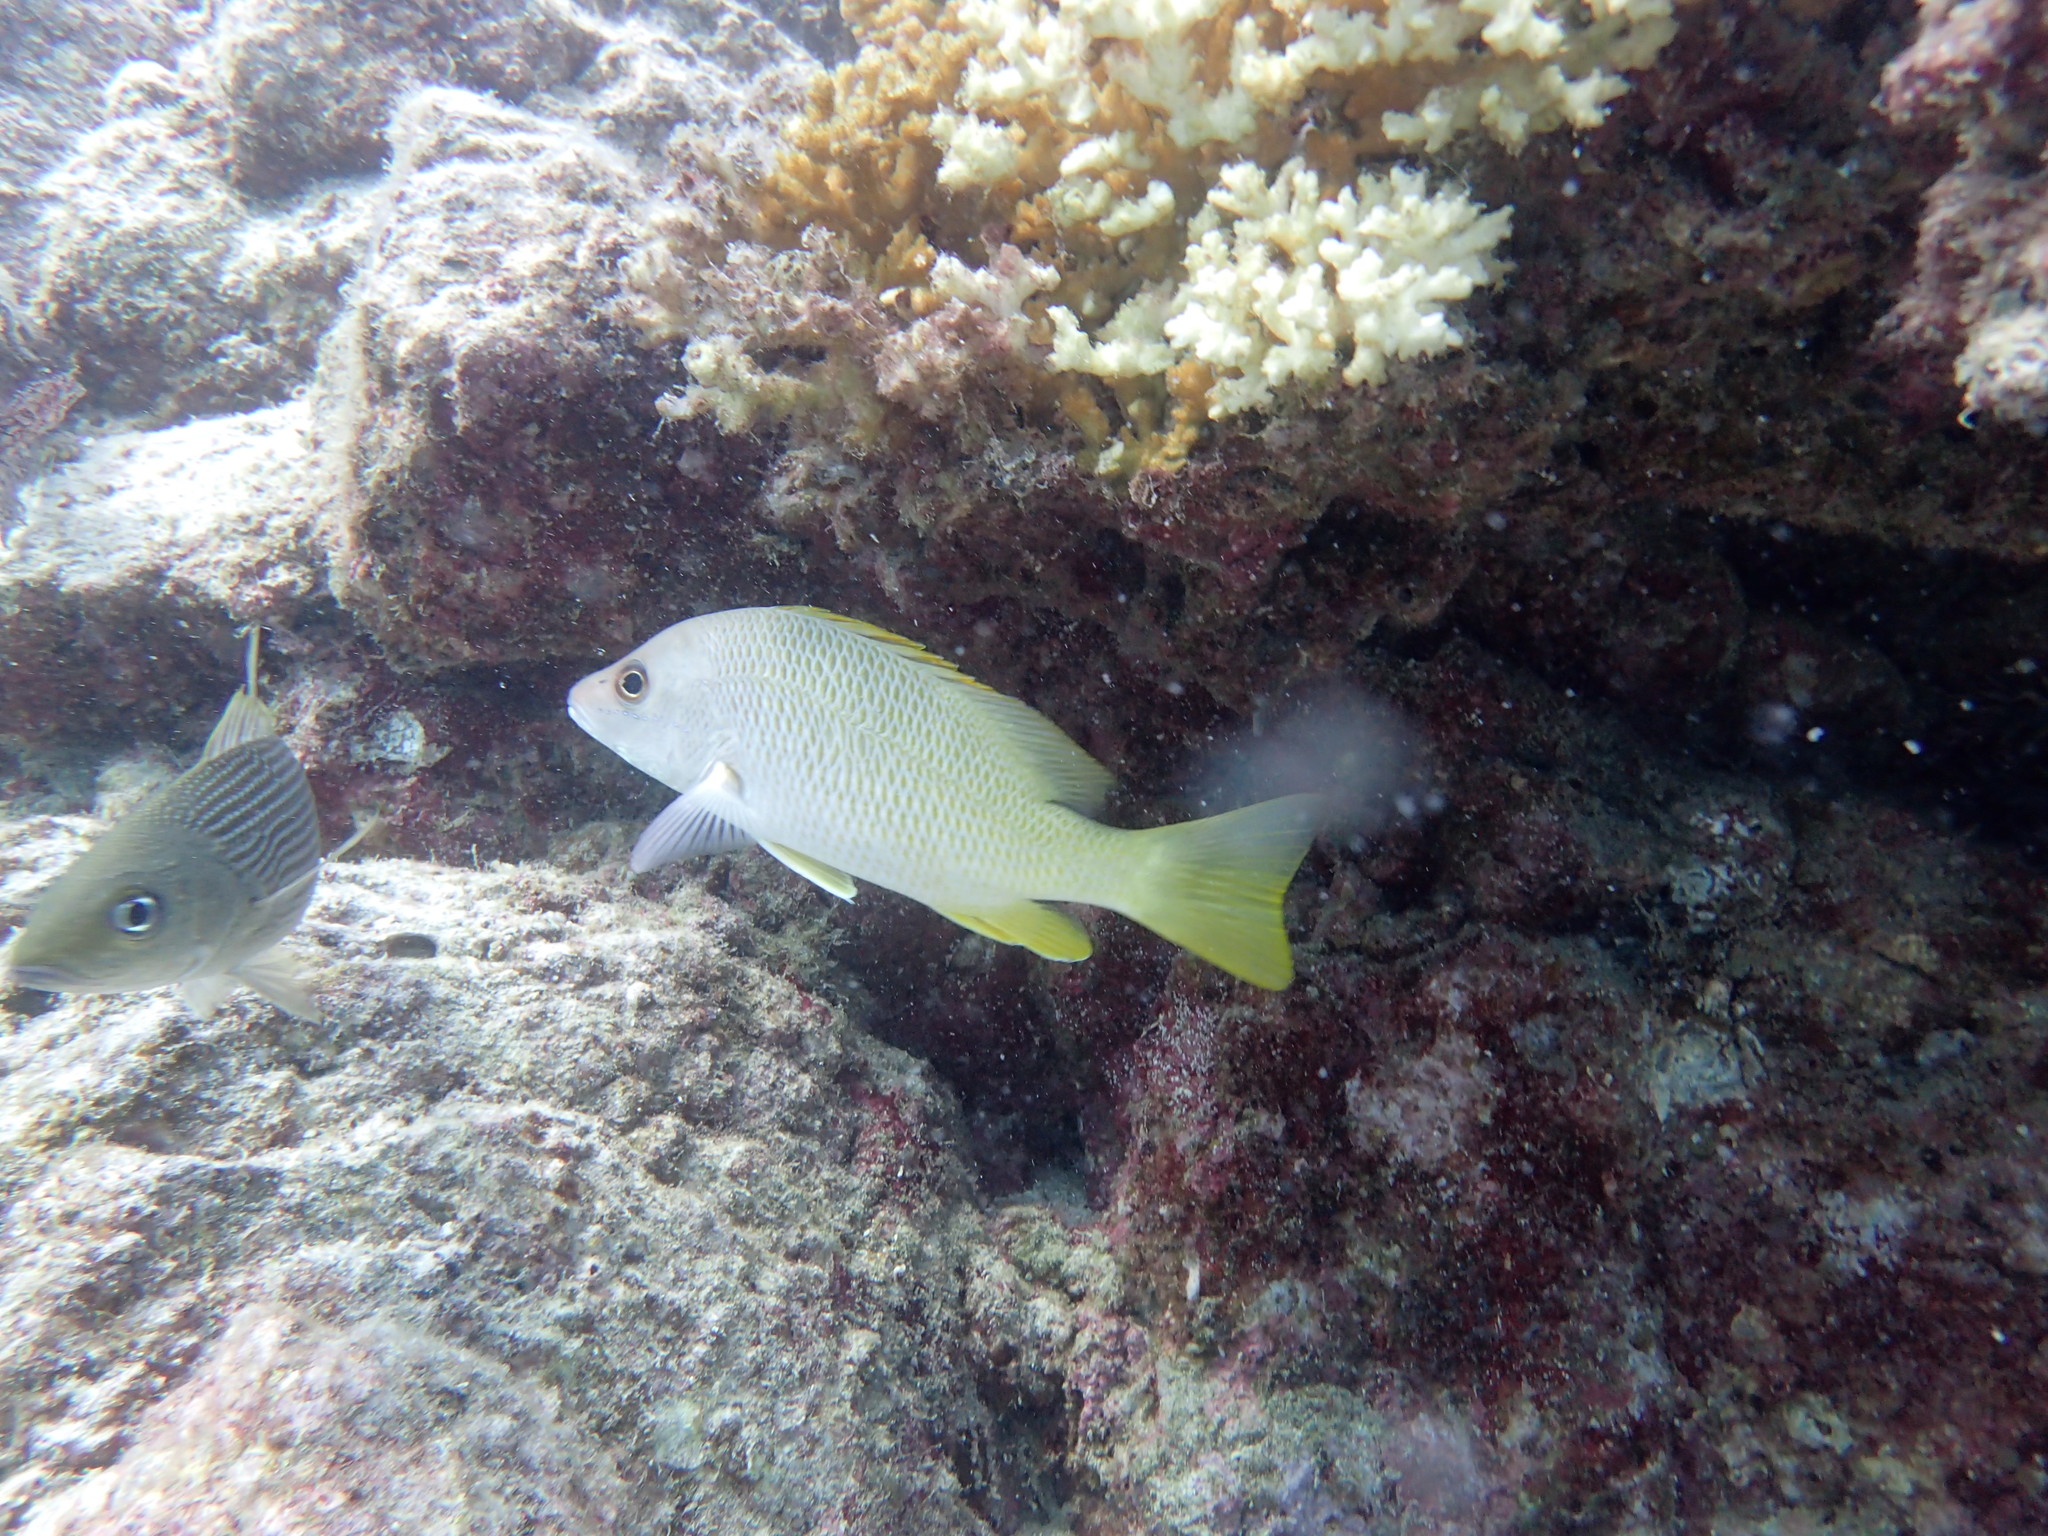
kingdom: Animalia
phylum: Chordata
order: Perciformes
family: Lutjanidae
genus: Lutjanus
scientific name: Lutjanus argentiventris
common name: Yellow snapper
